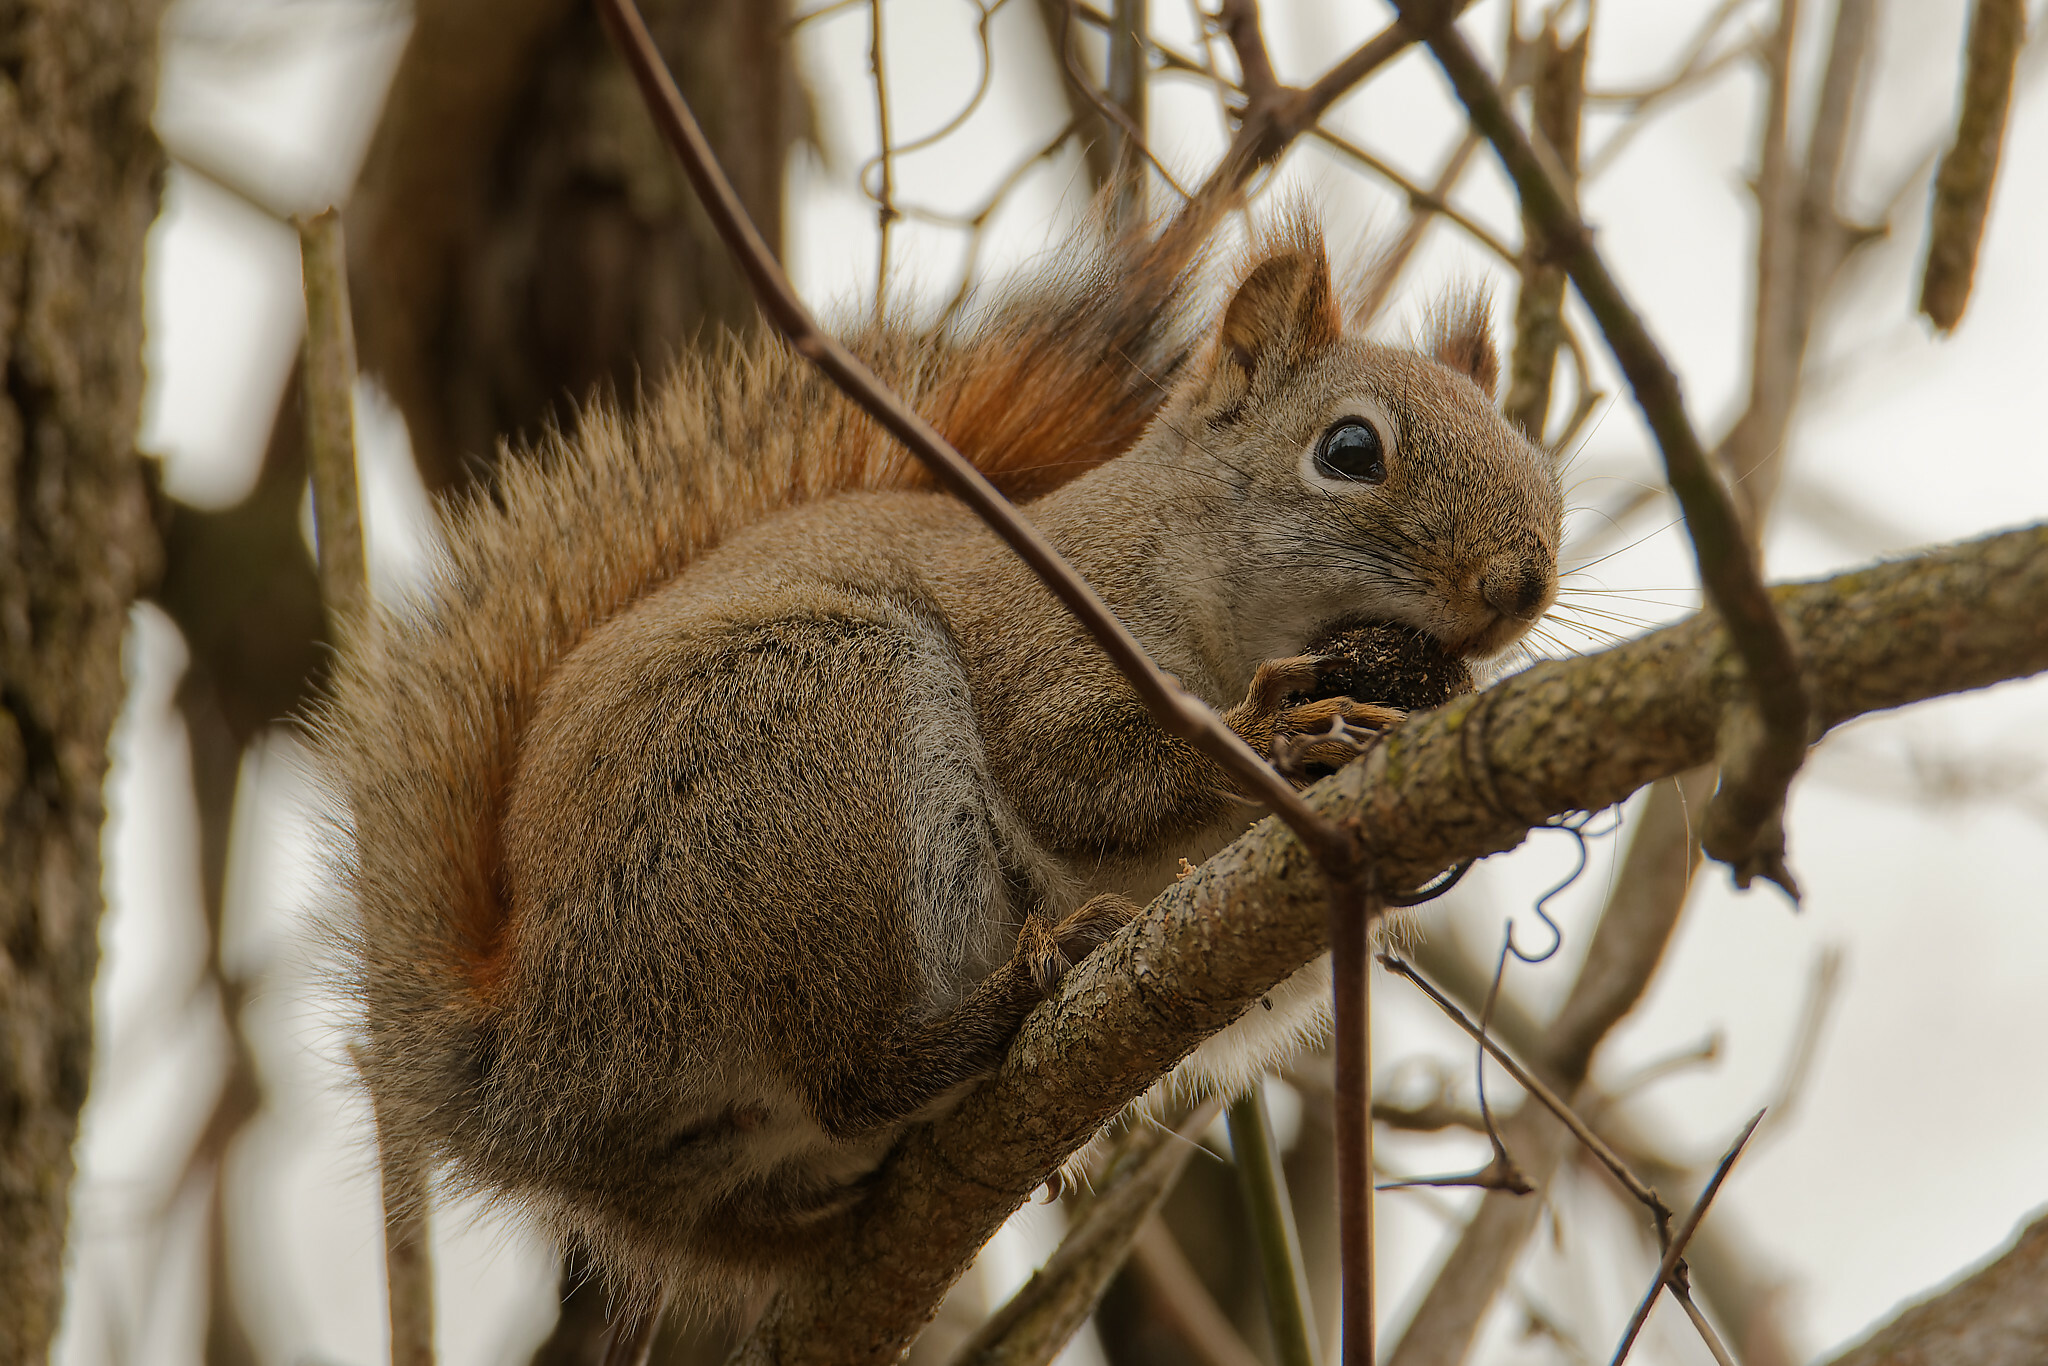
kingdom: Animalia
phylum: Chordata
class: Mammalia
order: Rodentia
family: Sciuridae
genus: Tamiasciurus
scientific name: Tamiasciurus hudsonicus
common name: Red squirrel
